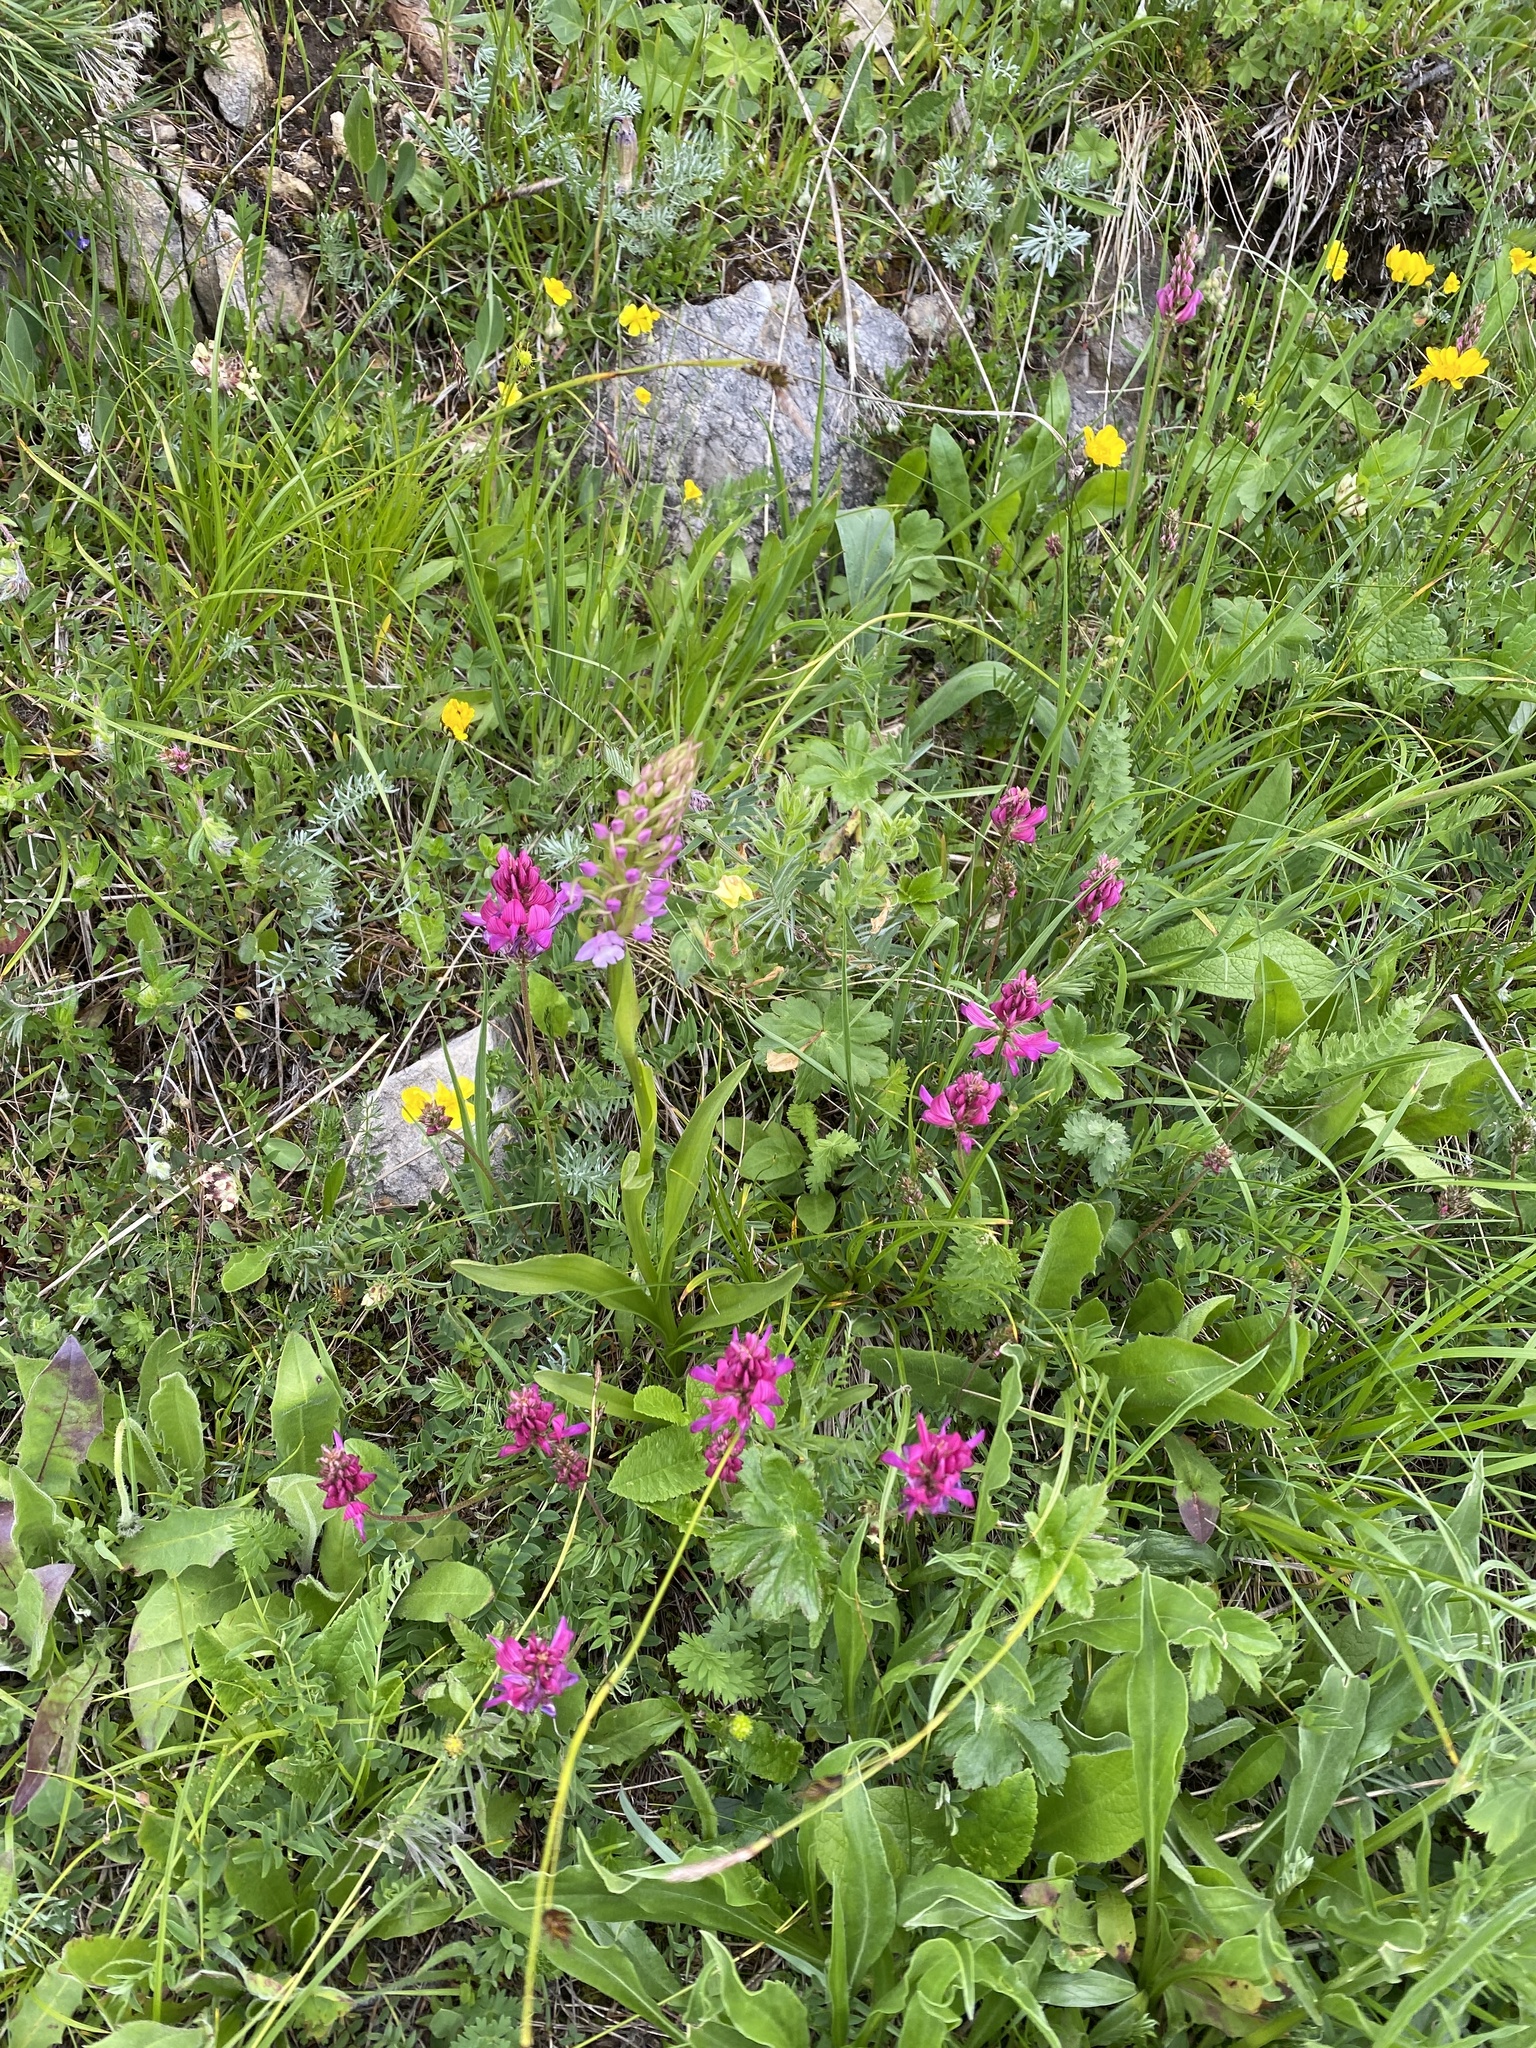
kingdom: Plantae
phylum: Tracheophyta
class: Liliopsida
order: Asparagales
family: Orchidaceae
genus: Gymnadenia
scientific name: Gymnadenia conopsea
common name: Fragrant orchid
